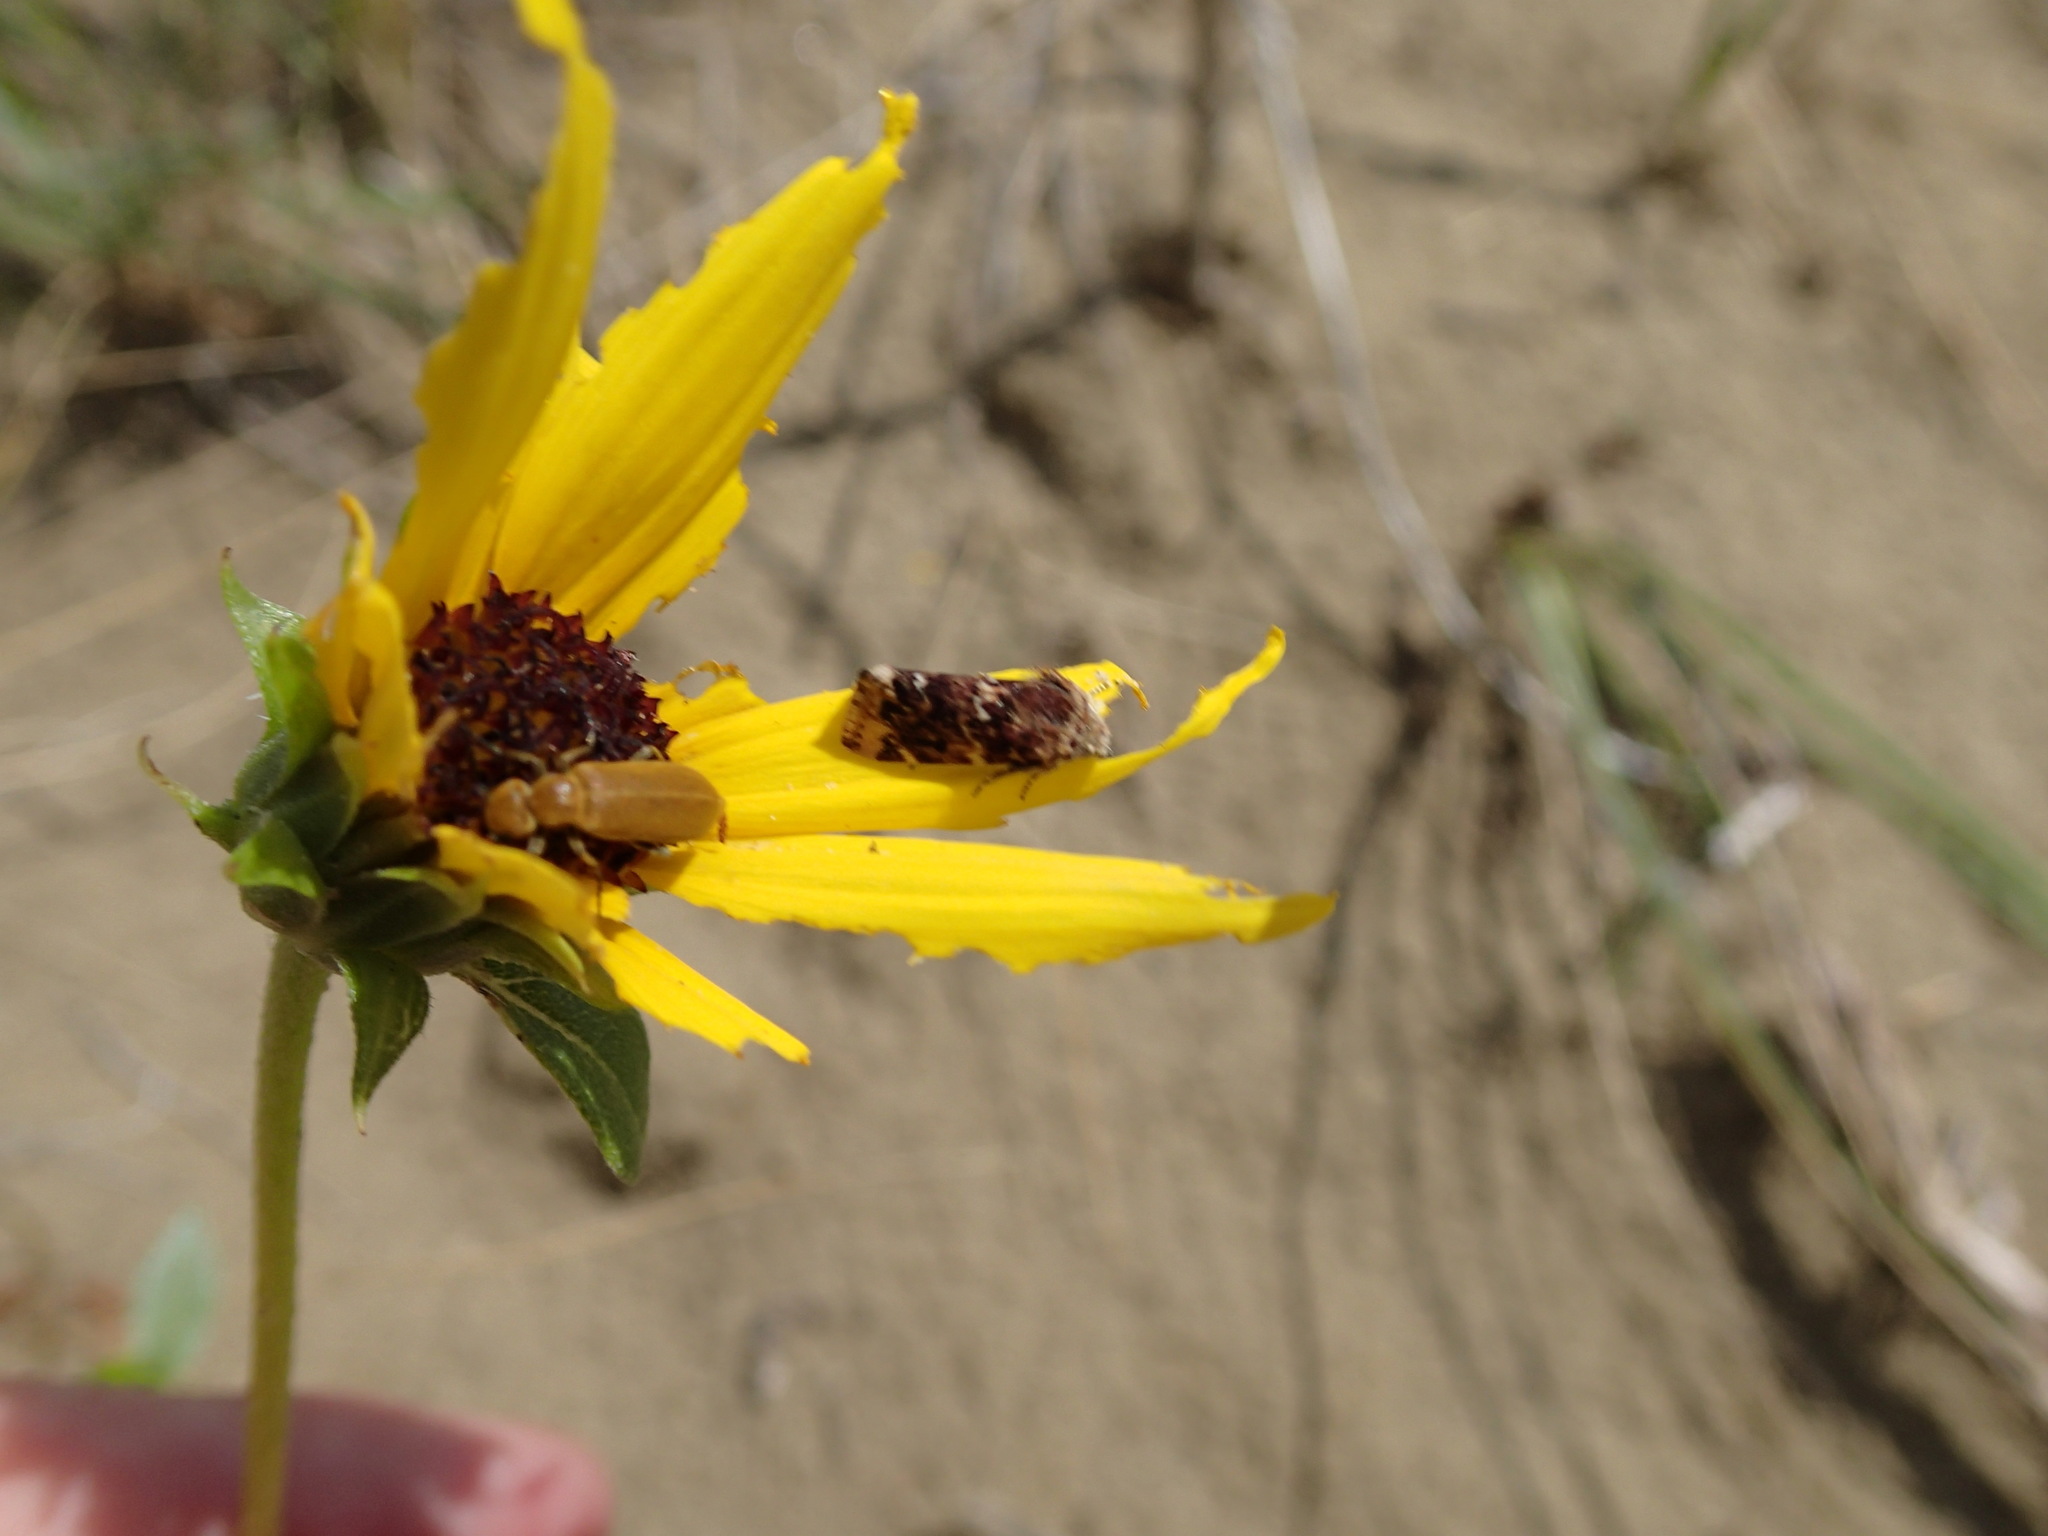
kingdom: Animalia
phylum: Arthropoda
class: Insecta
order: Lepidoptera
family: Noctuidae
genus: Schinia
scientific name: Schinia avemensis
